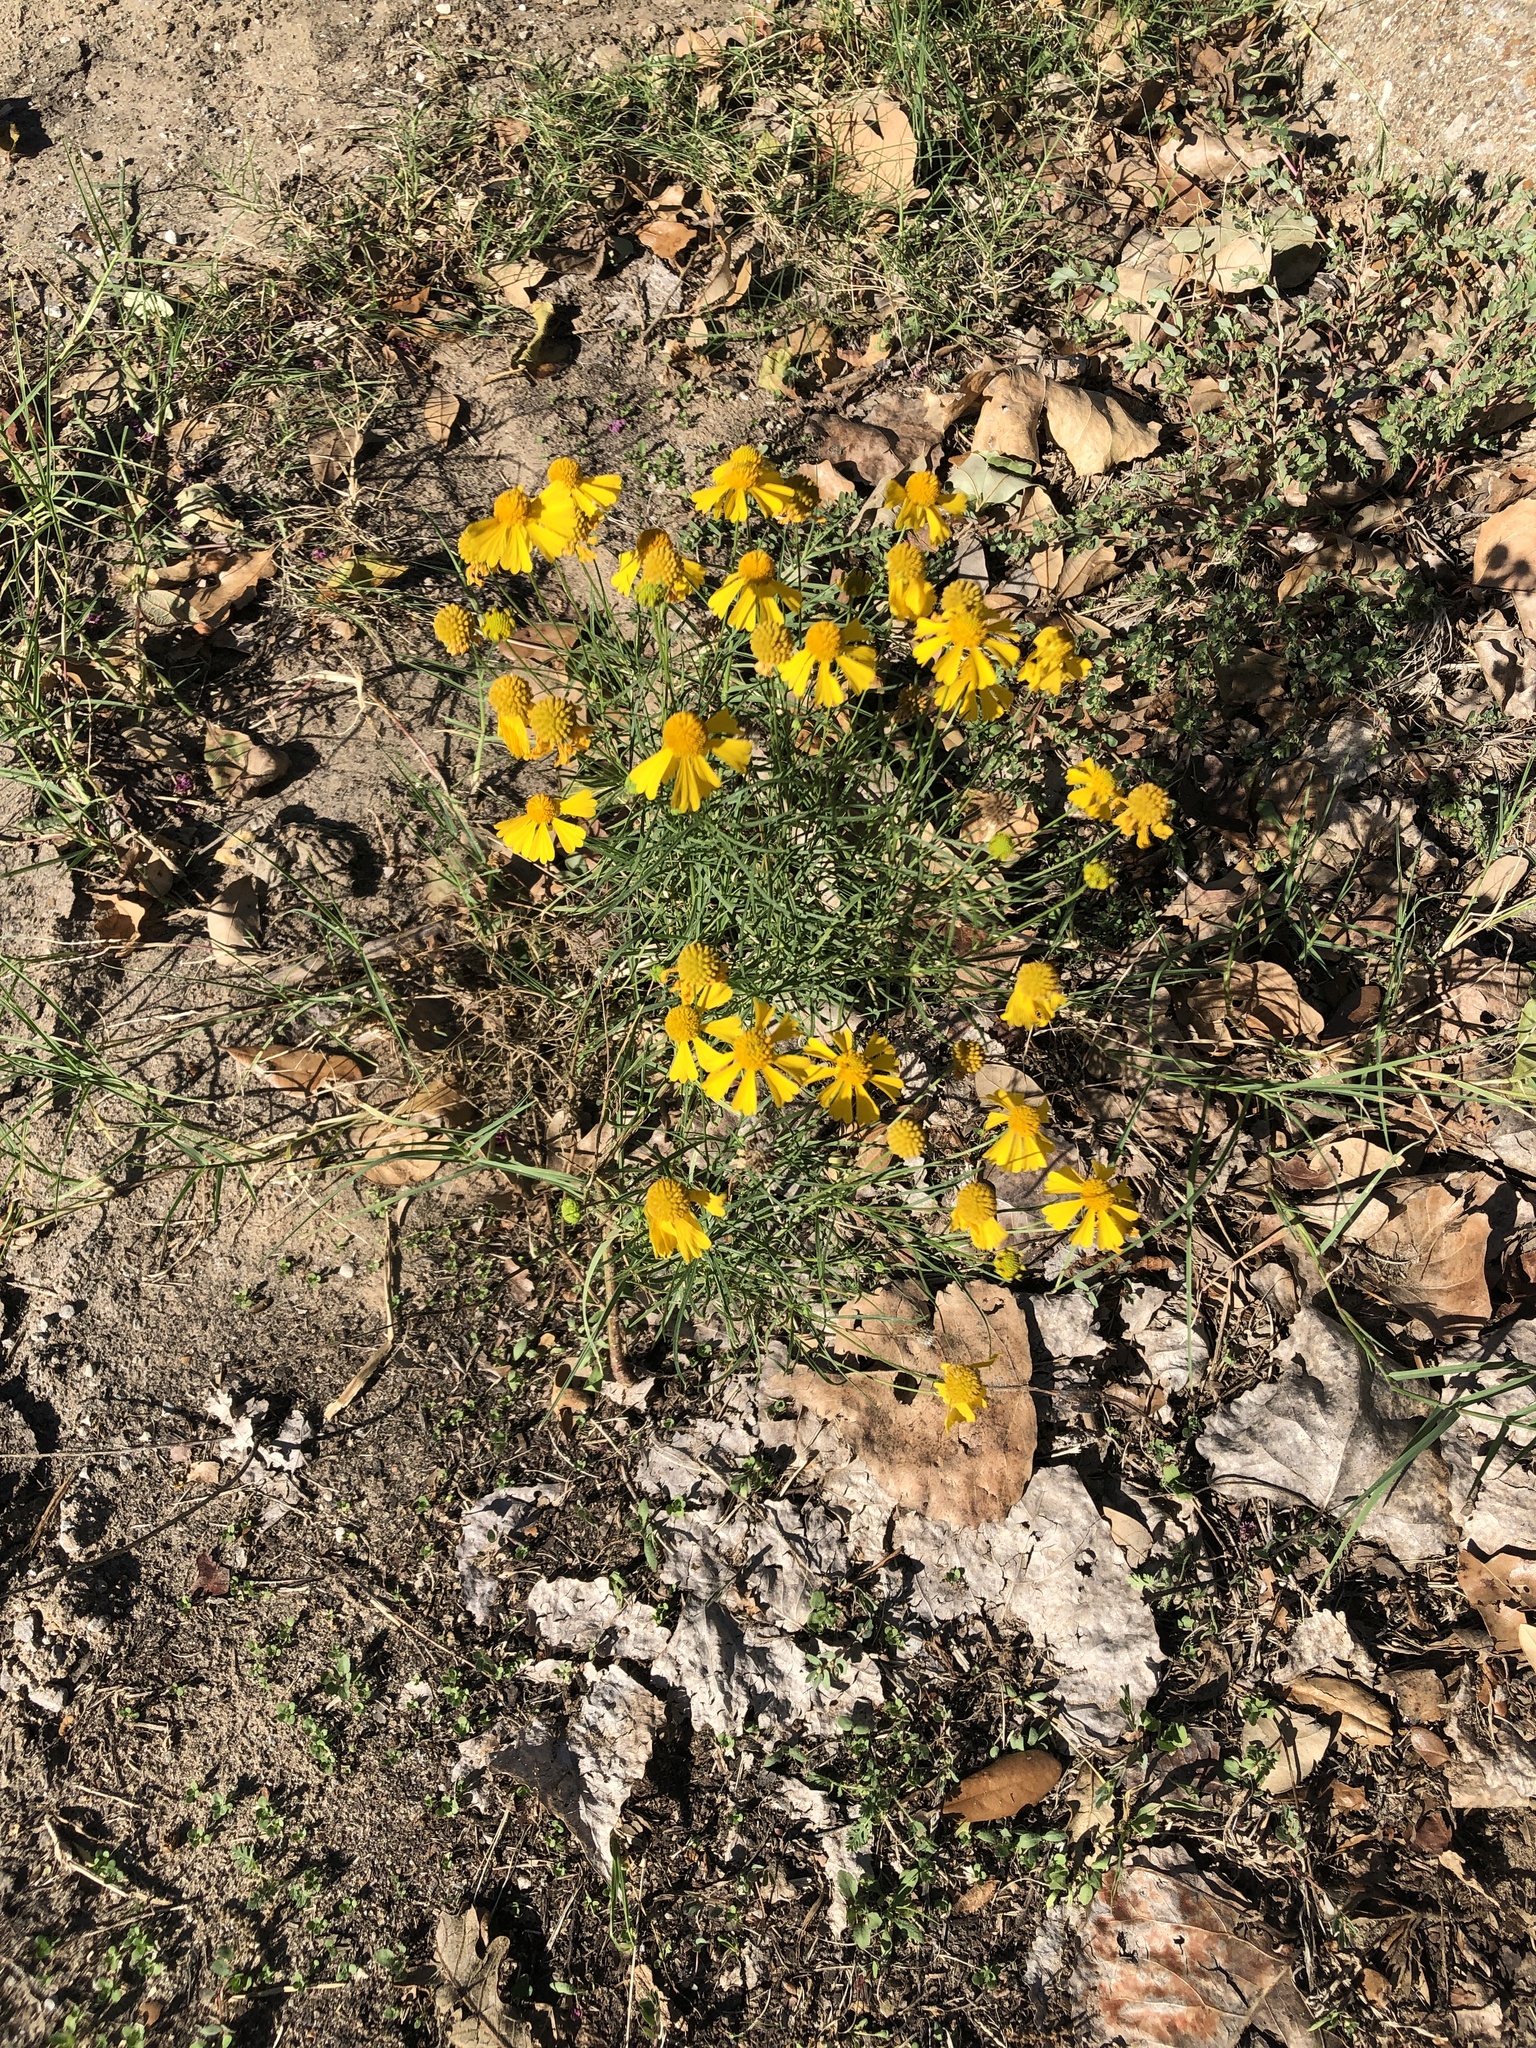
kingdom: Plantae
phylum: Tracheophyta
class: Magnoliopsida
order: Asterales
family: Asteraceae
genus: Helenium
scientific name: Helenium amarum
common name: Bitter sneezeweed
